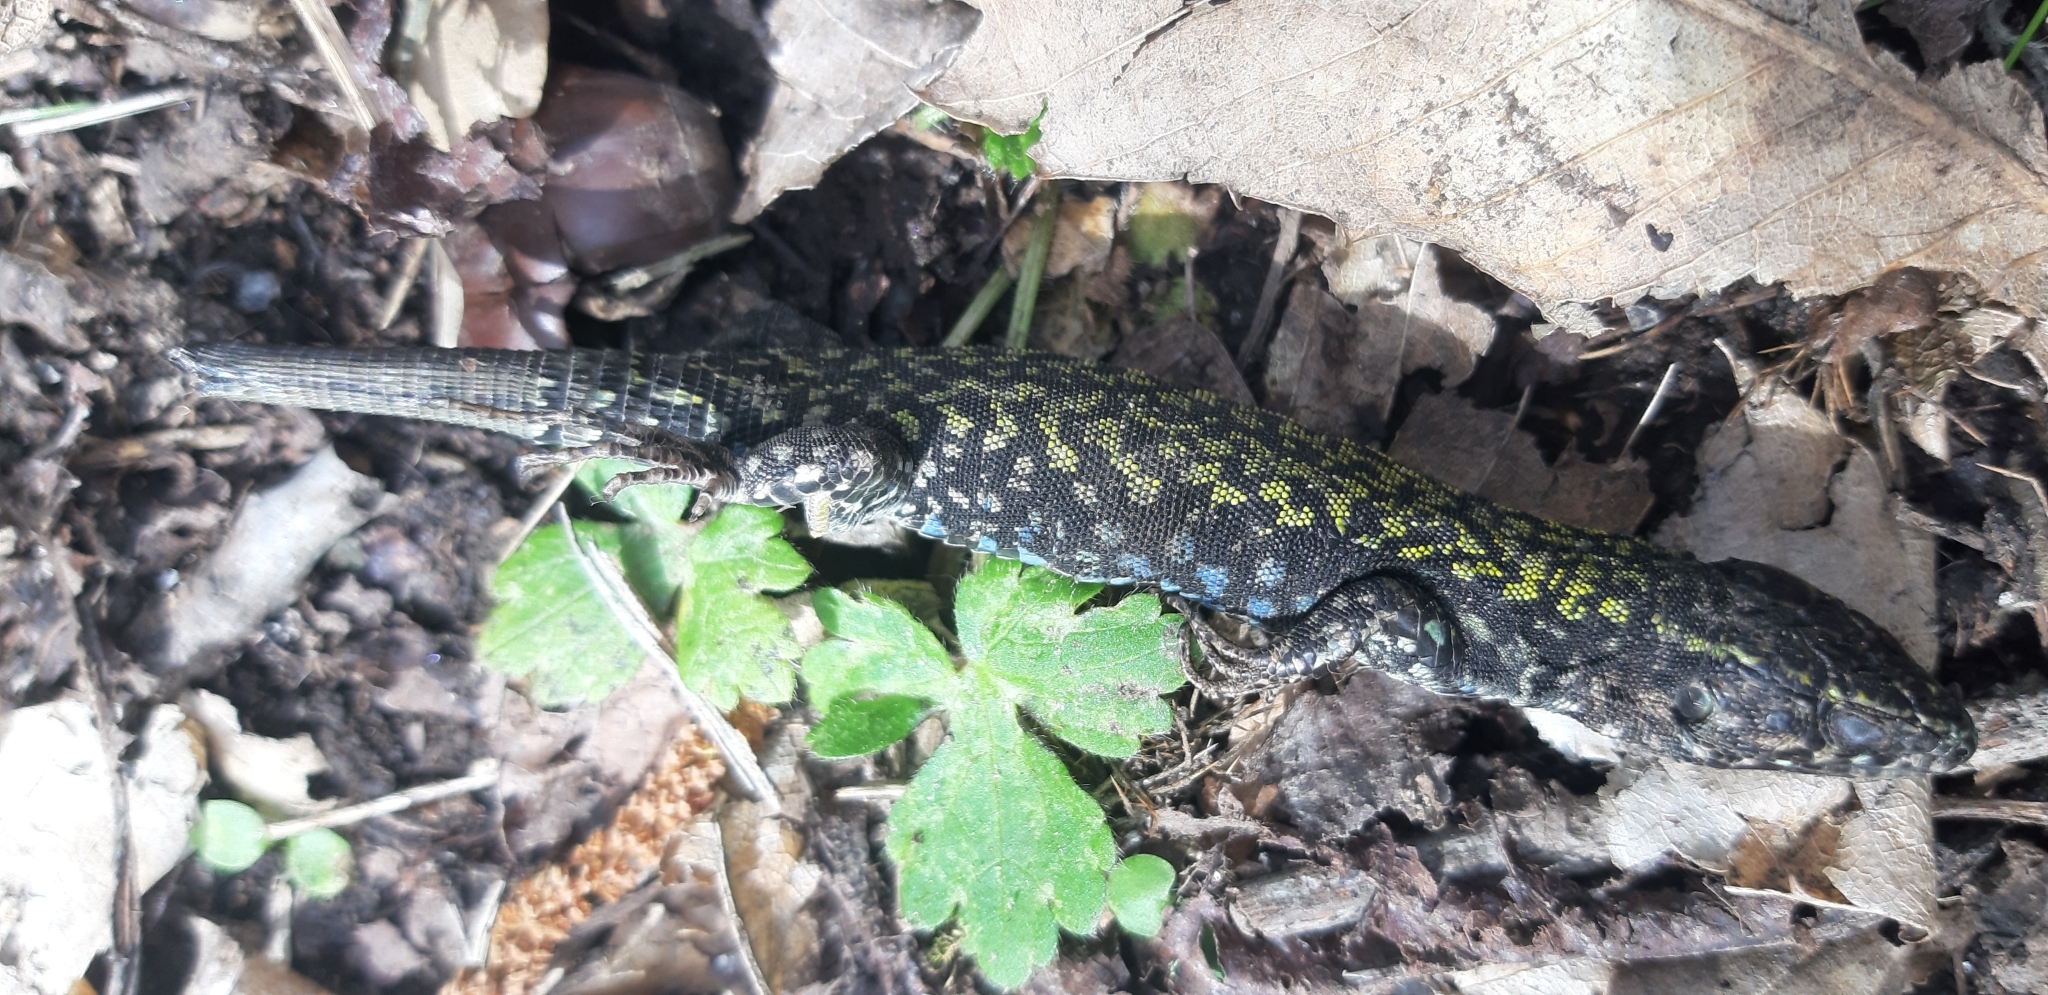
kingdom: Animalia
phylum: Chordata
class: Squamata
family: Lacertidae
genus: Podarcis
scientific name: Podarcis muralis
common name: Common wall lizard
